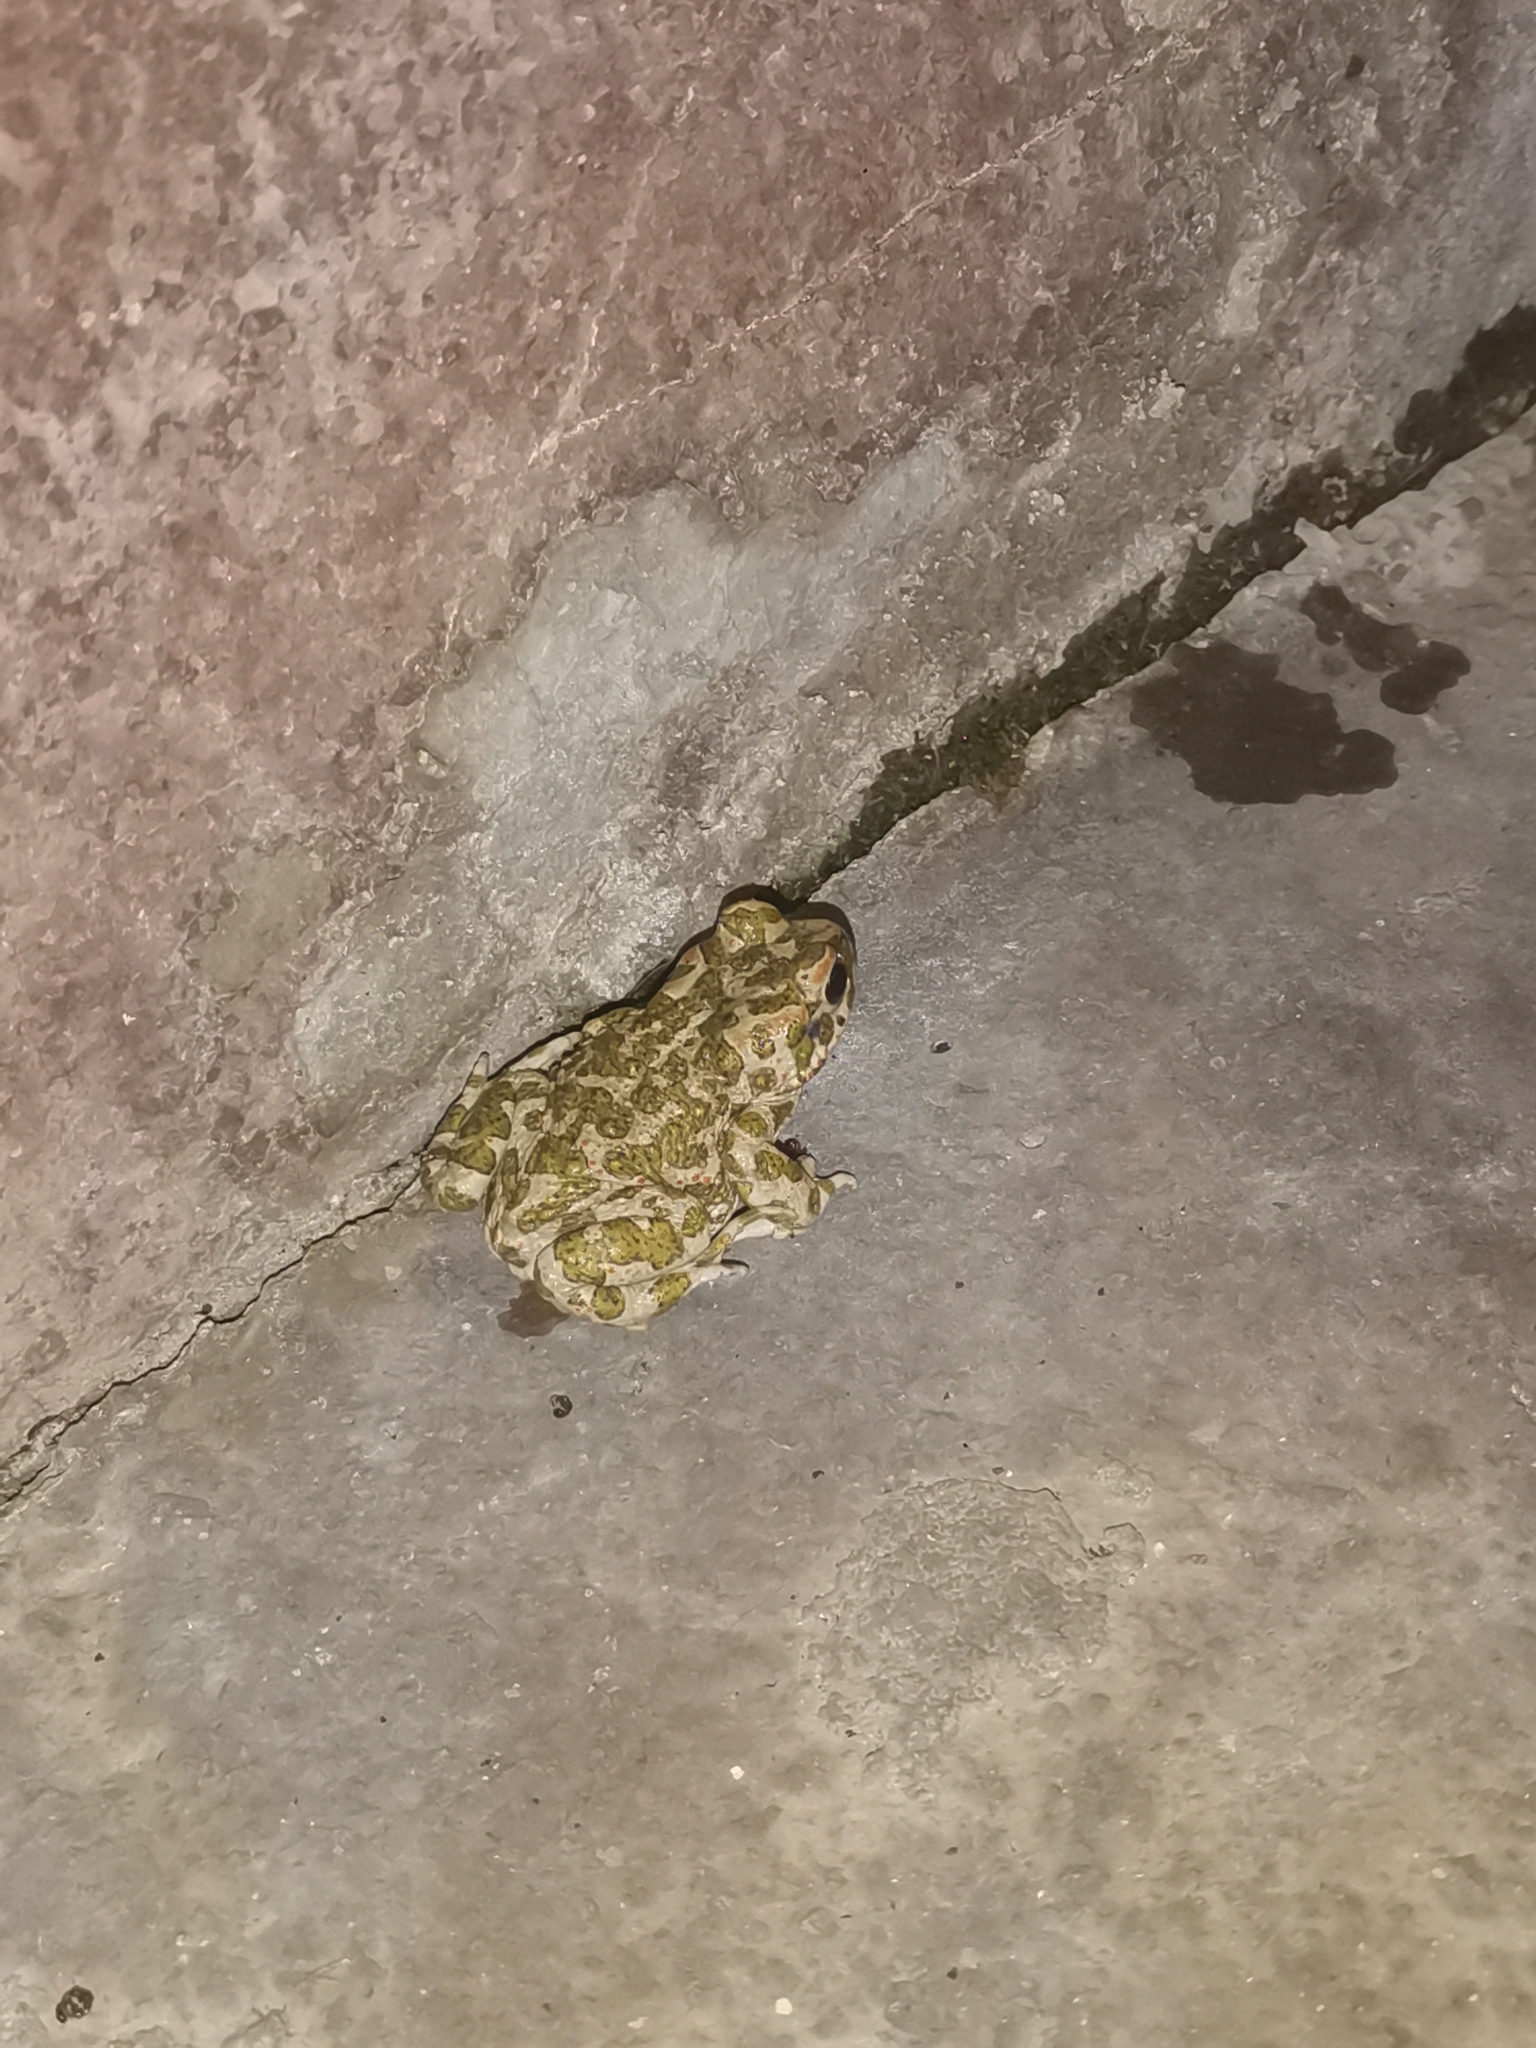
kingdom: Animalia
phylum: Chordata
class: Amphibia
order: Anura
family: Bufonidae
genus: Bufotes
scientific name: Bufotes viridis
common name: European green toad
